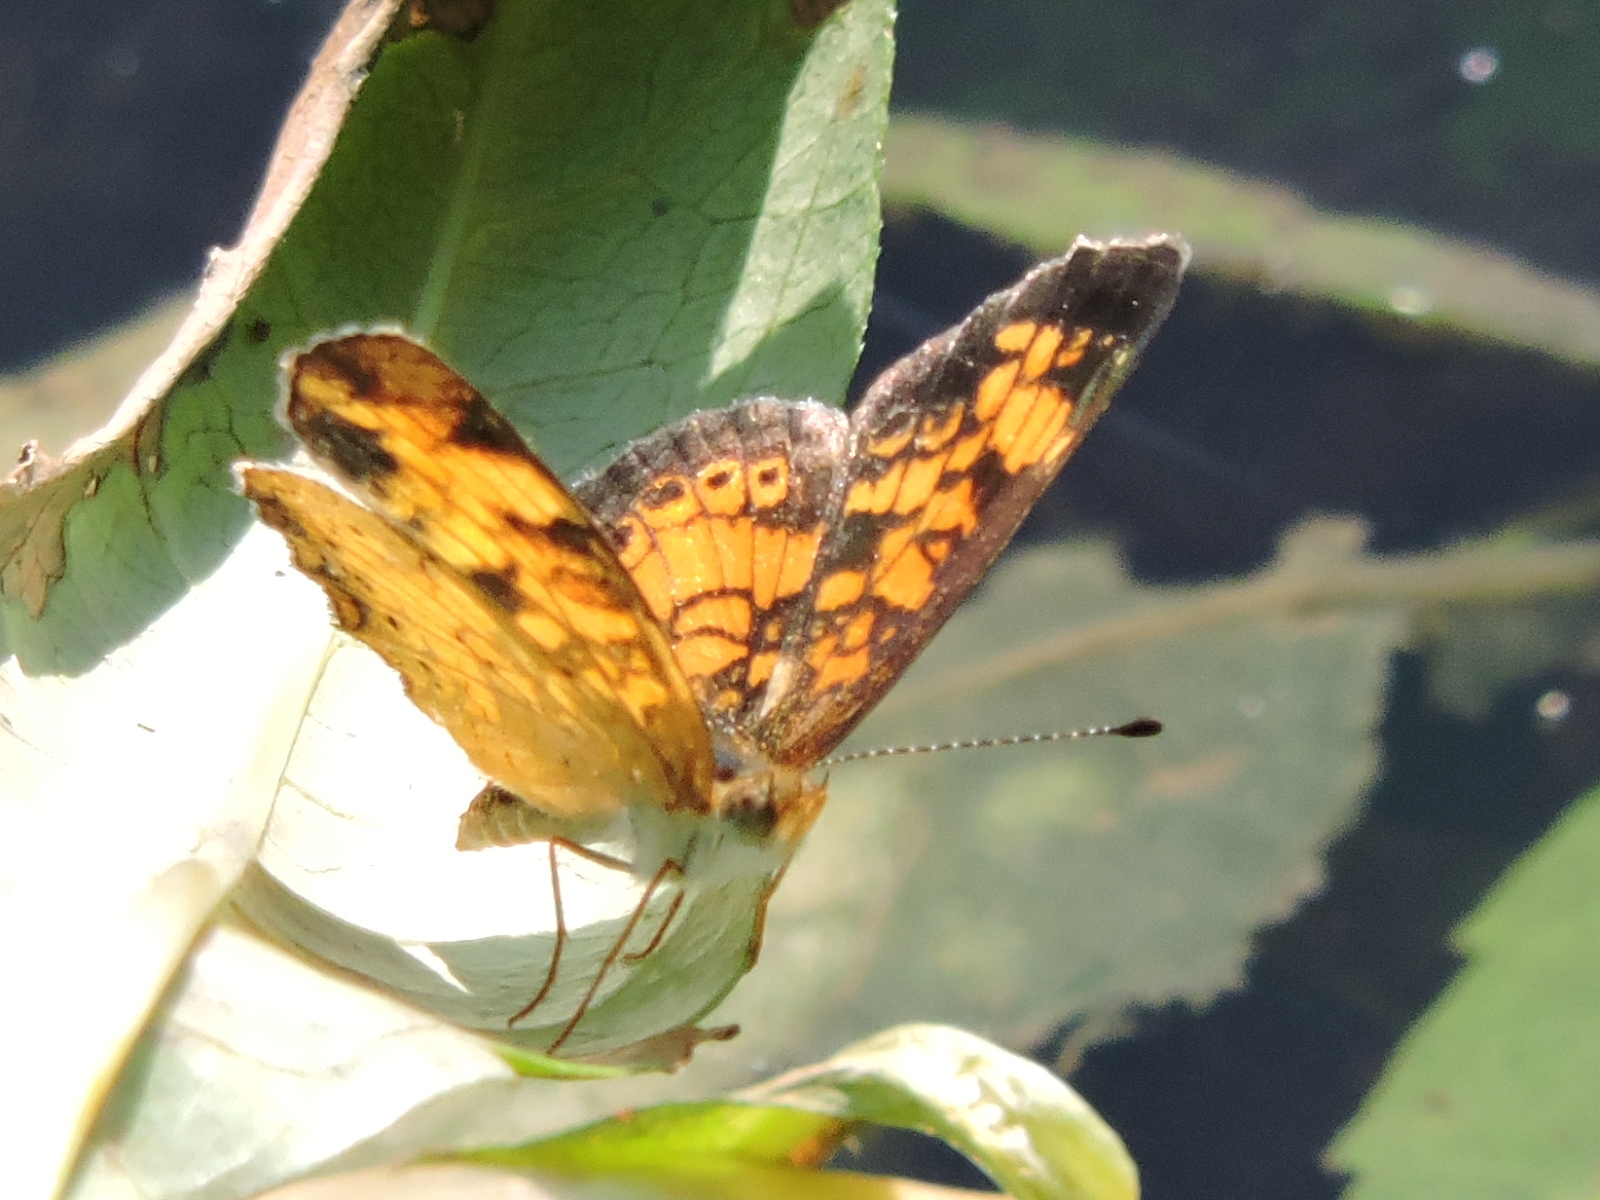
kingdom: Animalia
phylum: Arthropoda
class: Insecta
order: Lepidoptera
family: Nymphalidae
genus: Phyciodes
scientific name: Phyciodes tharos
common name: Pearl crescent
